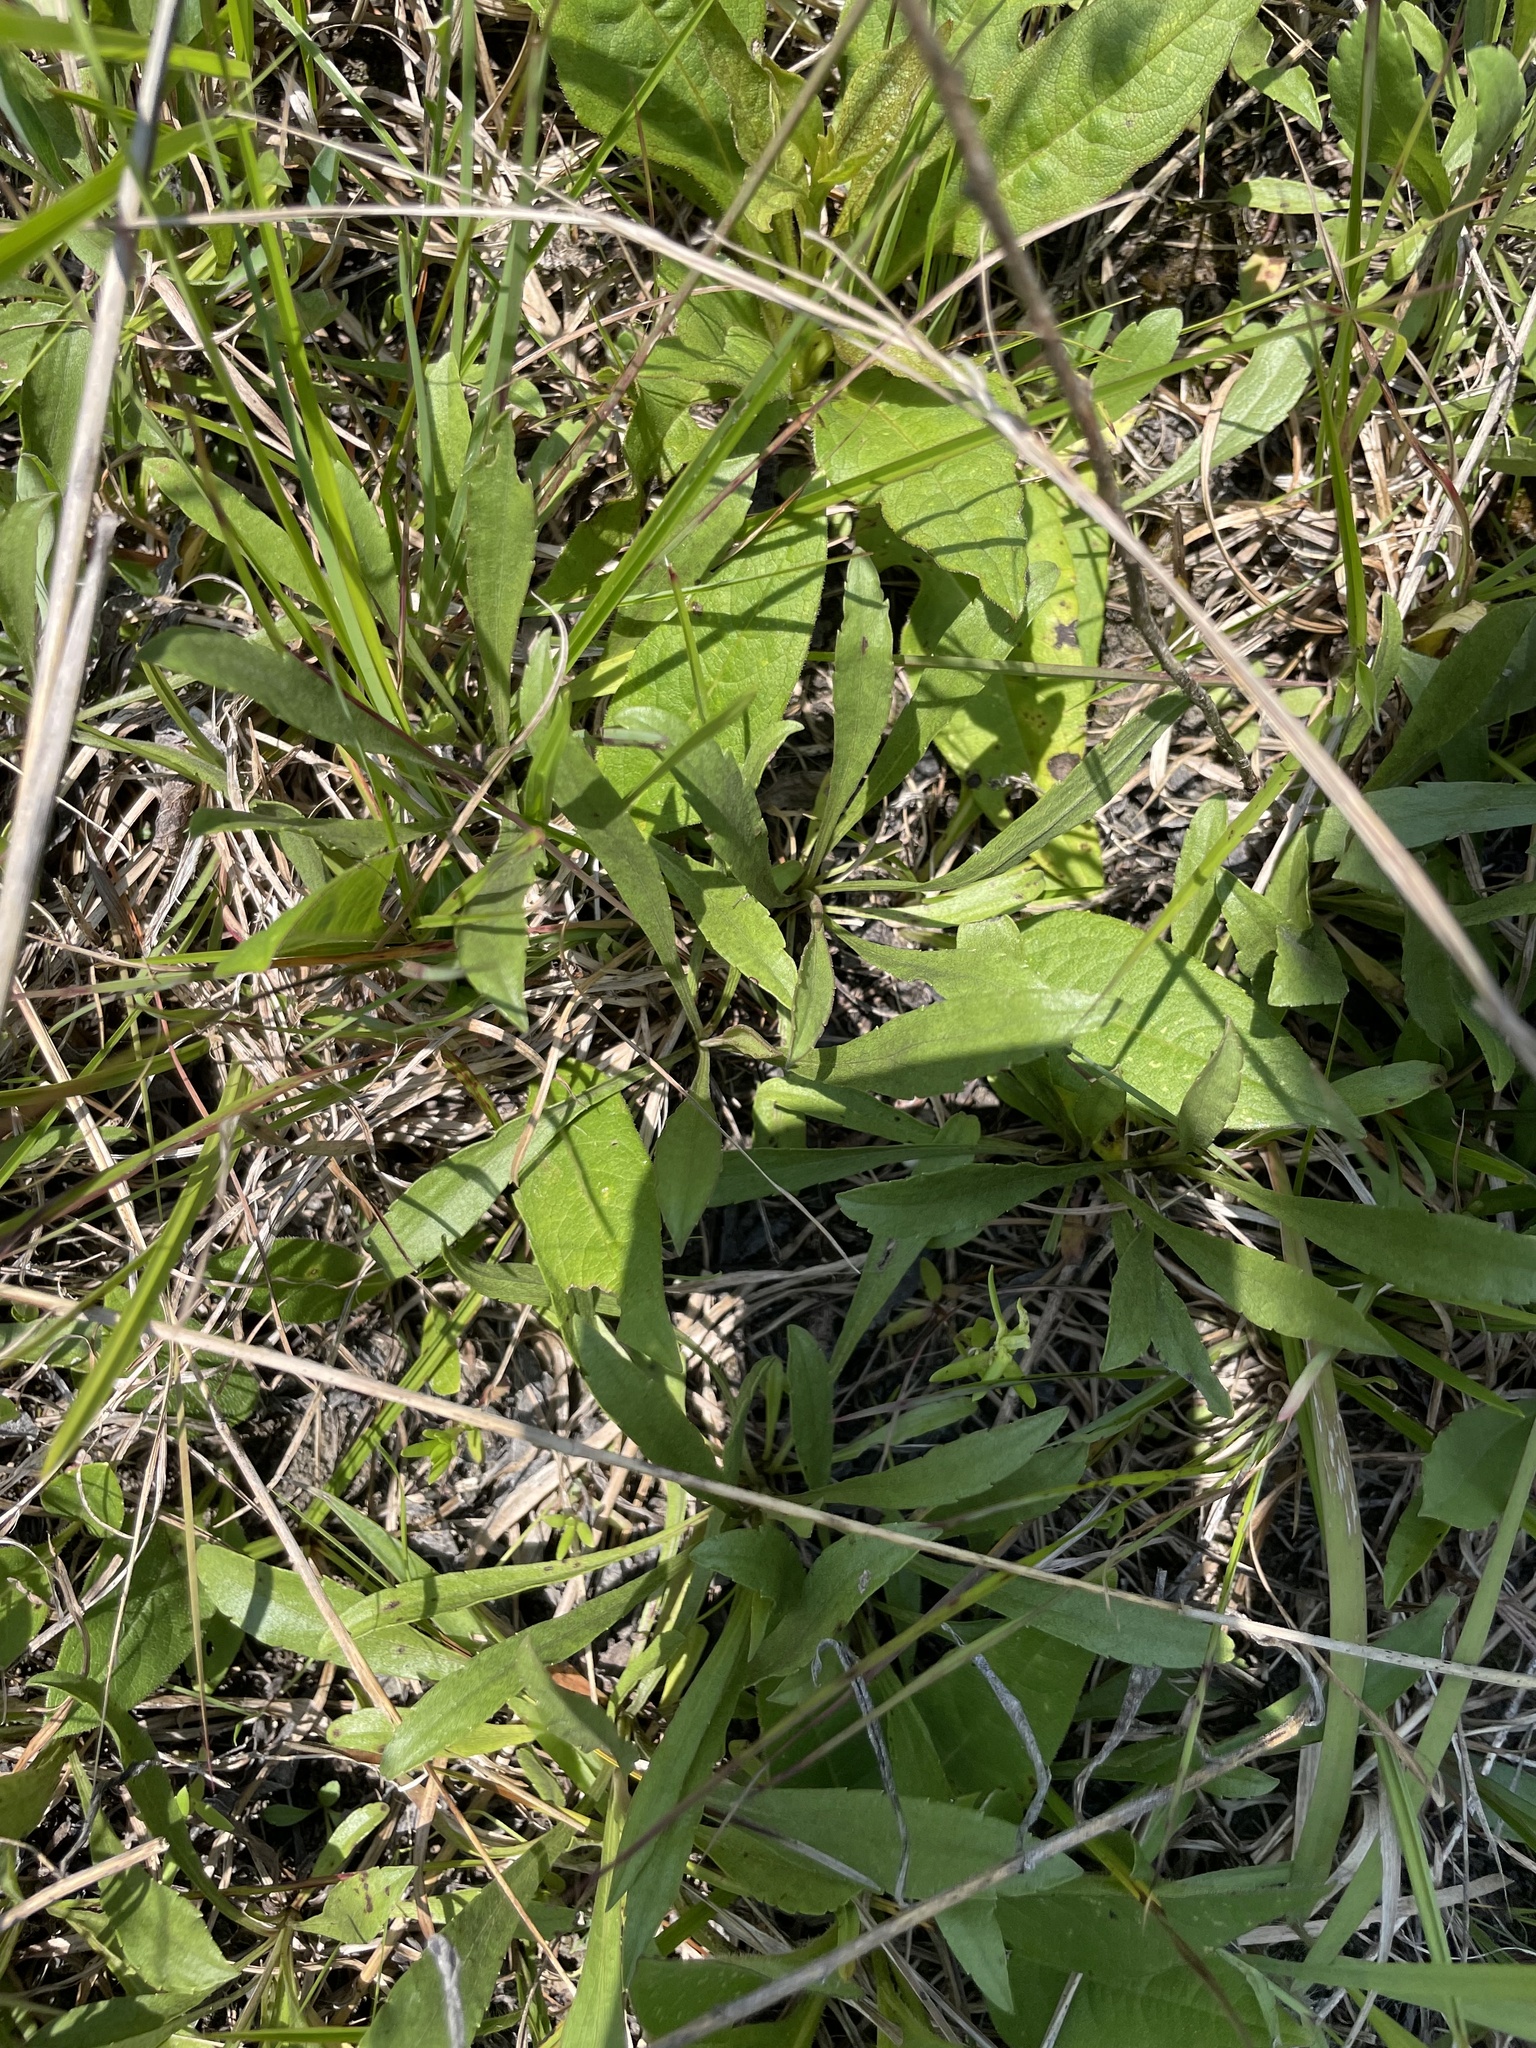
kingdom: Plantae
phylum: Tracheophyta
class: Magnoliopsida
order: Asterales
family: Asteraceae
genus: Solidago
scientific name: Solidago nemoralis
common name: Grey goldenrod
